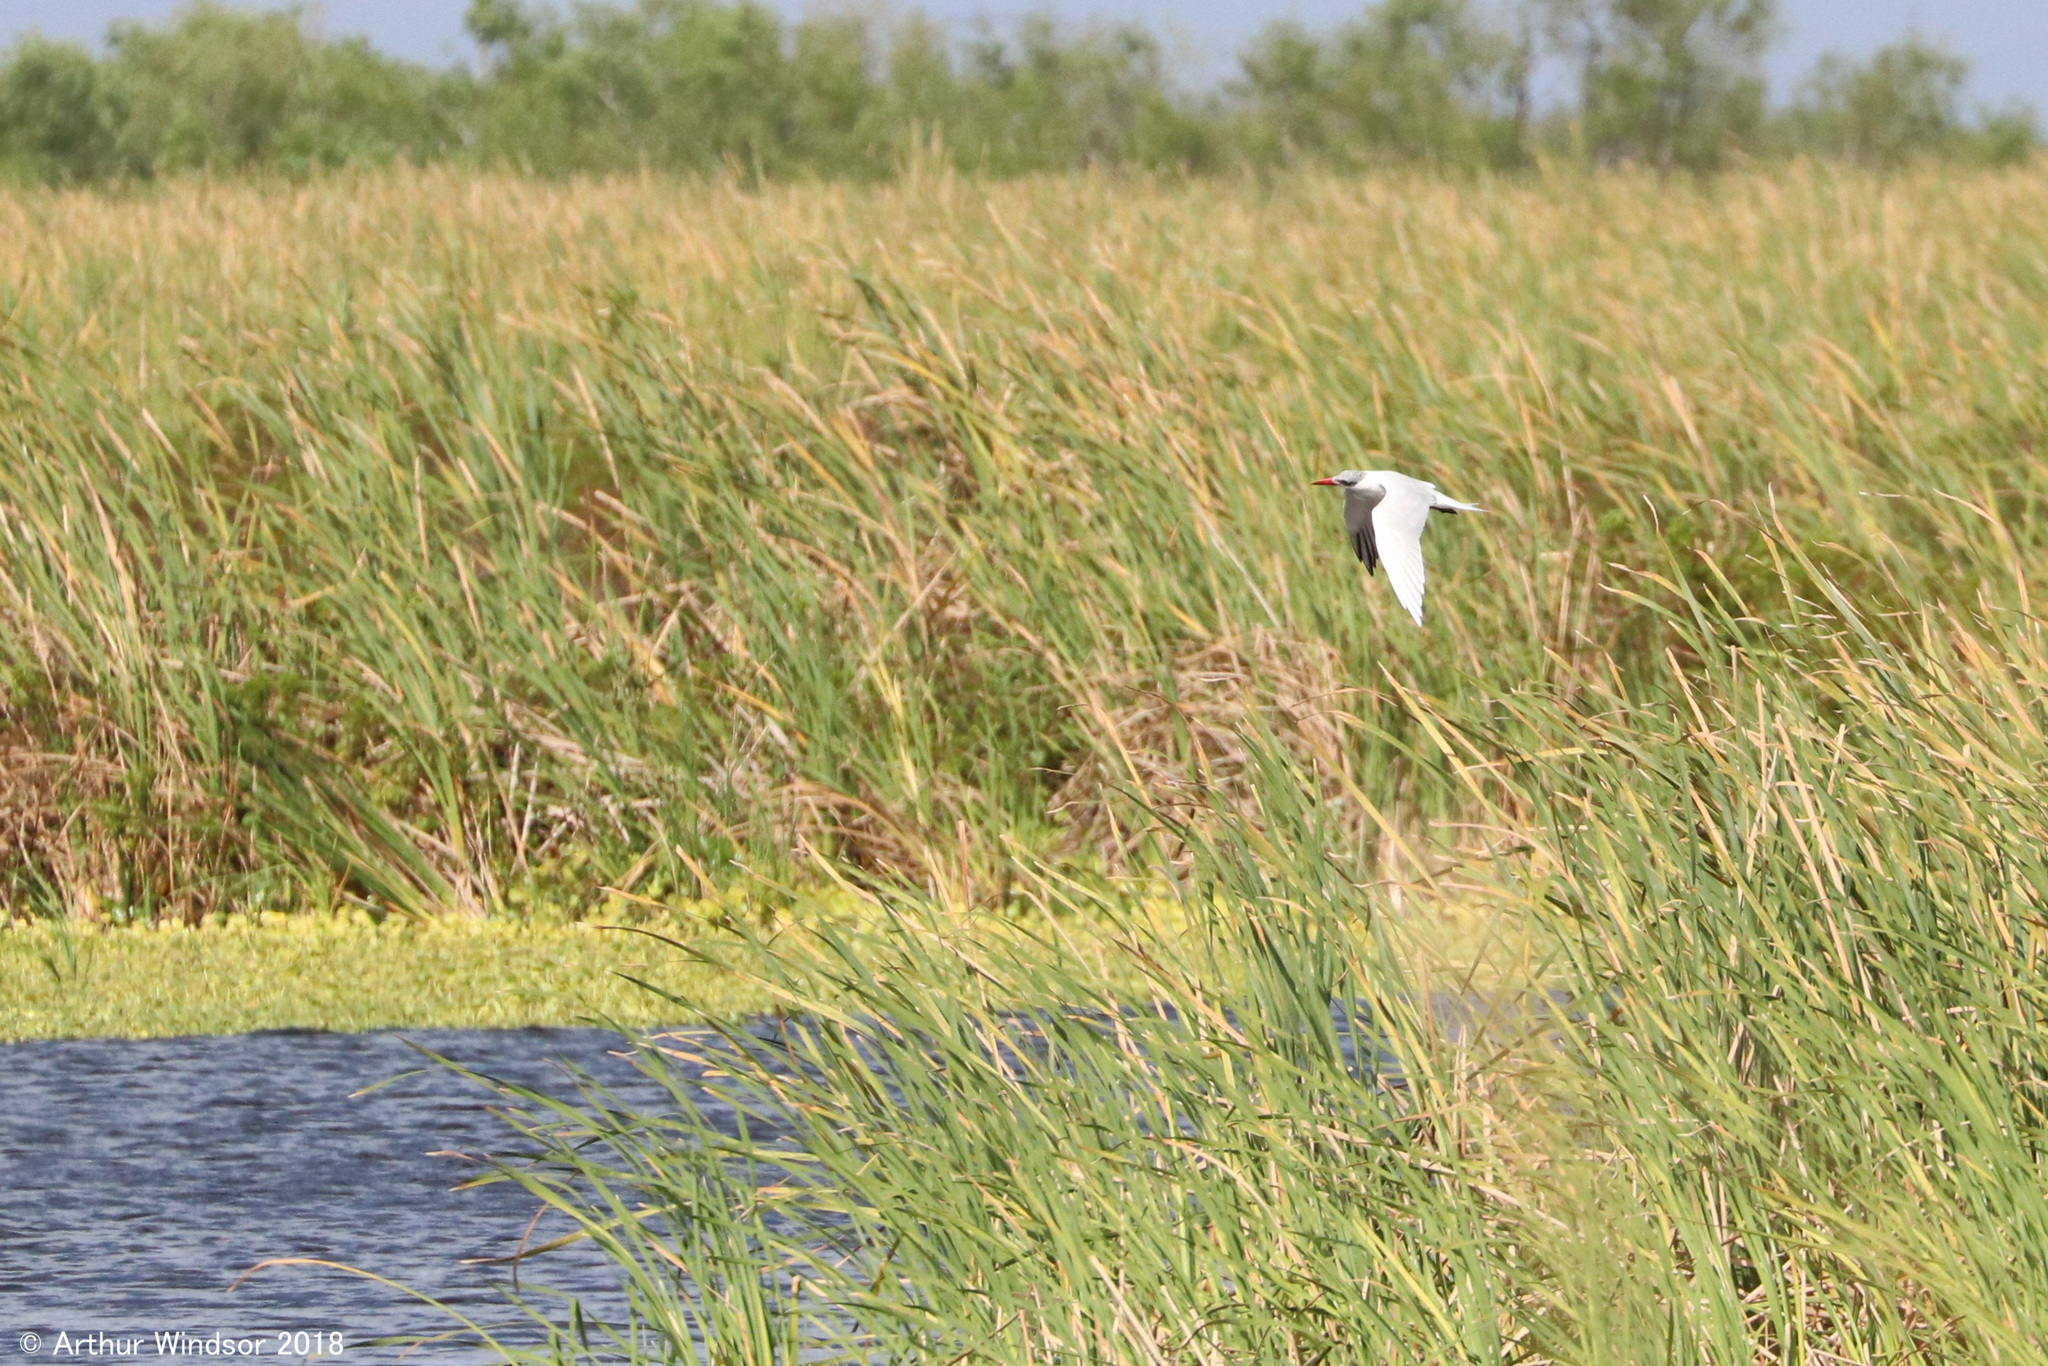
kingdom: Animalia
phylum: Chordata
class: Aves
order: Charadriiformes
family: Laridae
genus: Hydroprogne
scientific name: Hydroprogne caspia
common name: Caspian tern
